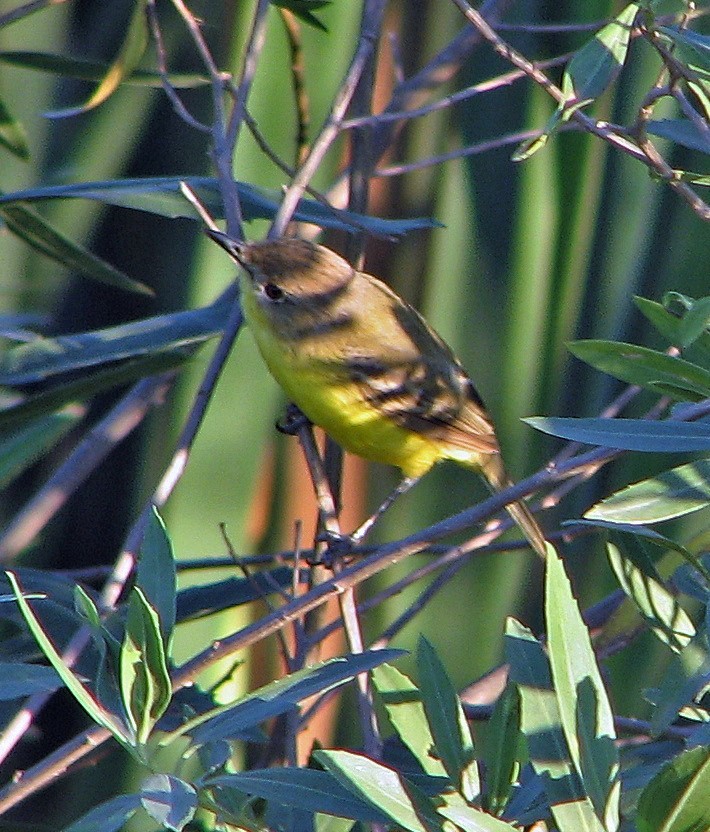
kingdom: Animalia
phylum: Chordata
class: Aves
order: Passeriformes
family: Tyrannidae
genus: Pseudocolopteryx
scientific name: Pseudocolopteryx dinelliana
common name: Dinelli's doradito
